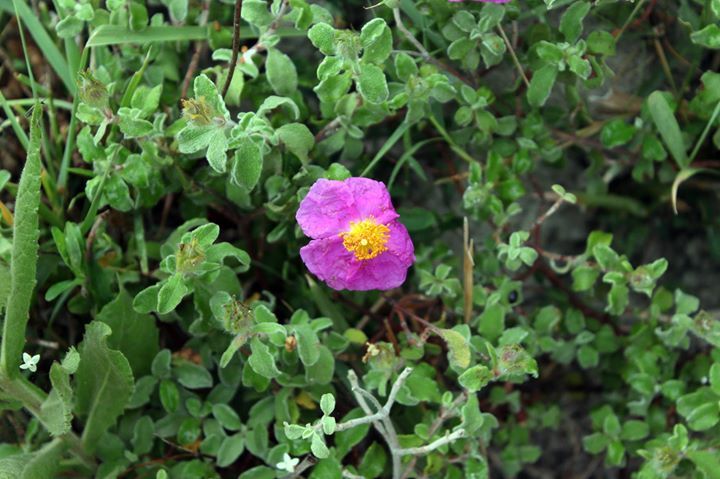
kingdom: Plantae
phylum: Tracheophyta
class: Magnoliopsida
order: Malvales
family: Cistaceae
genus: Cistus
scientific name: Cistus creticus
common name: Cretan rockrose
